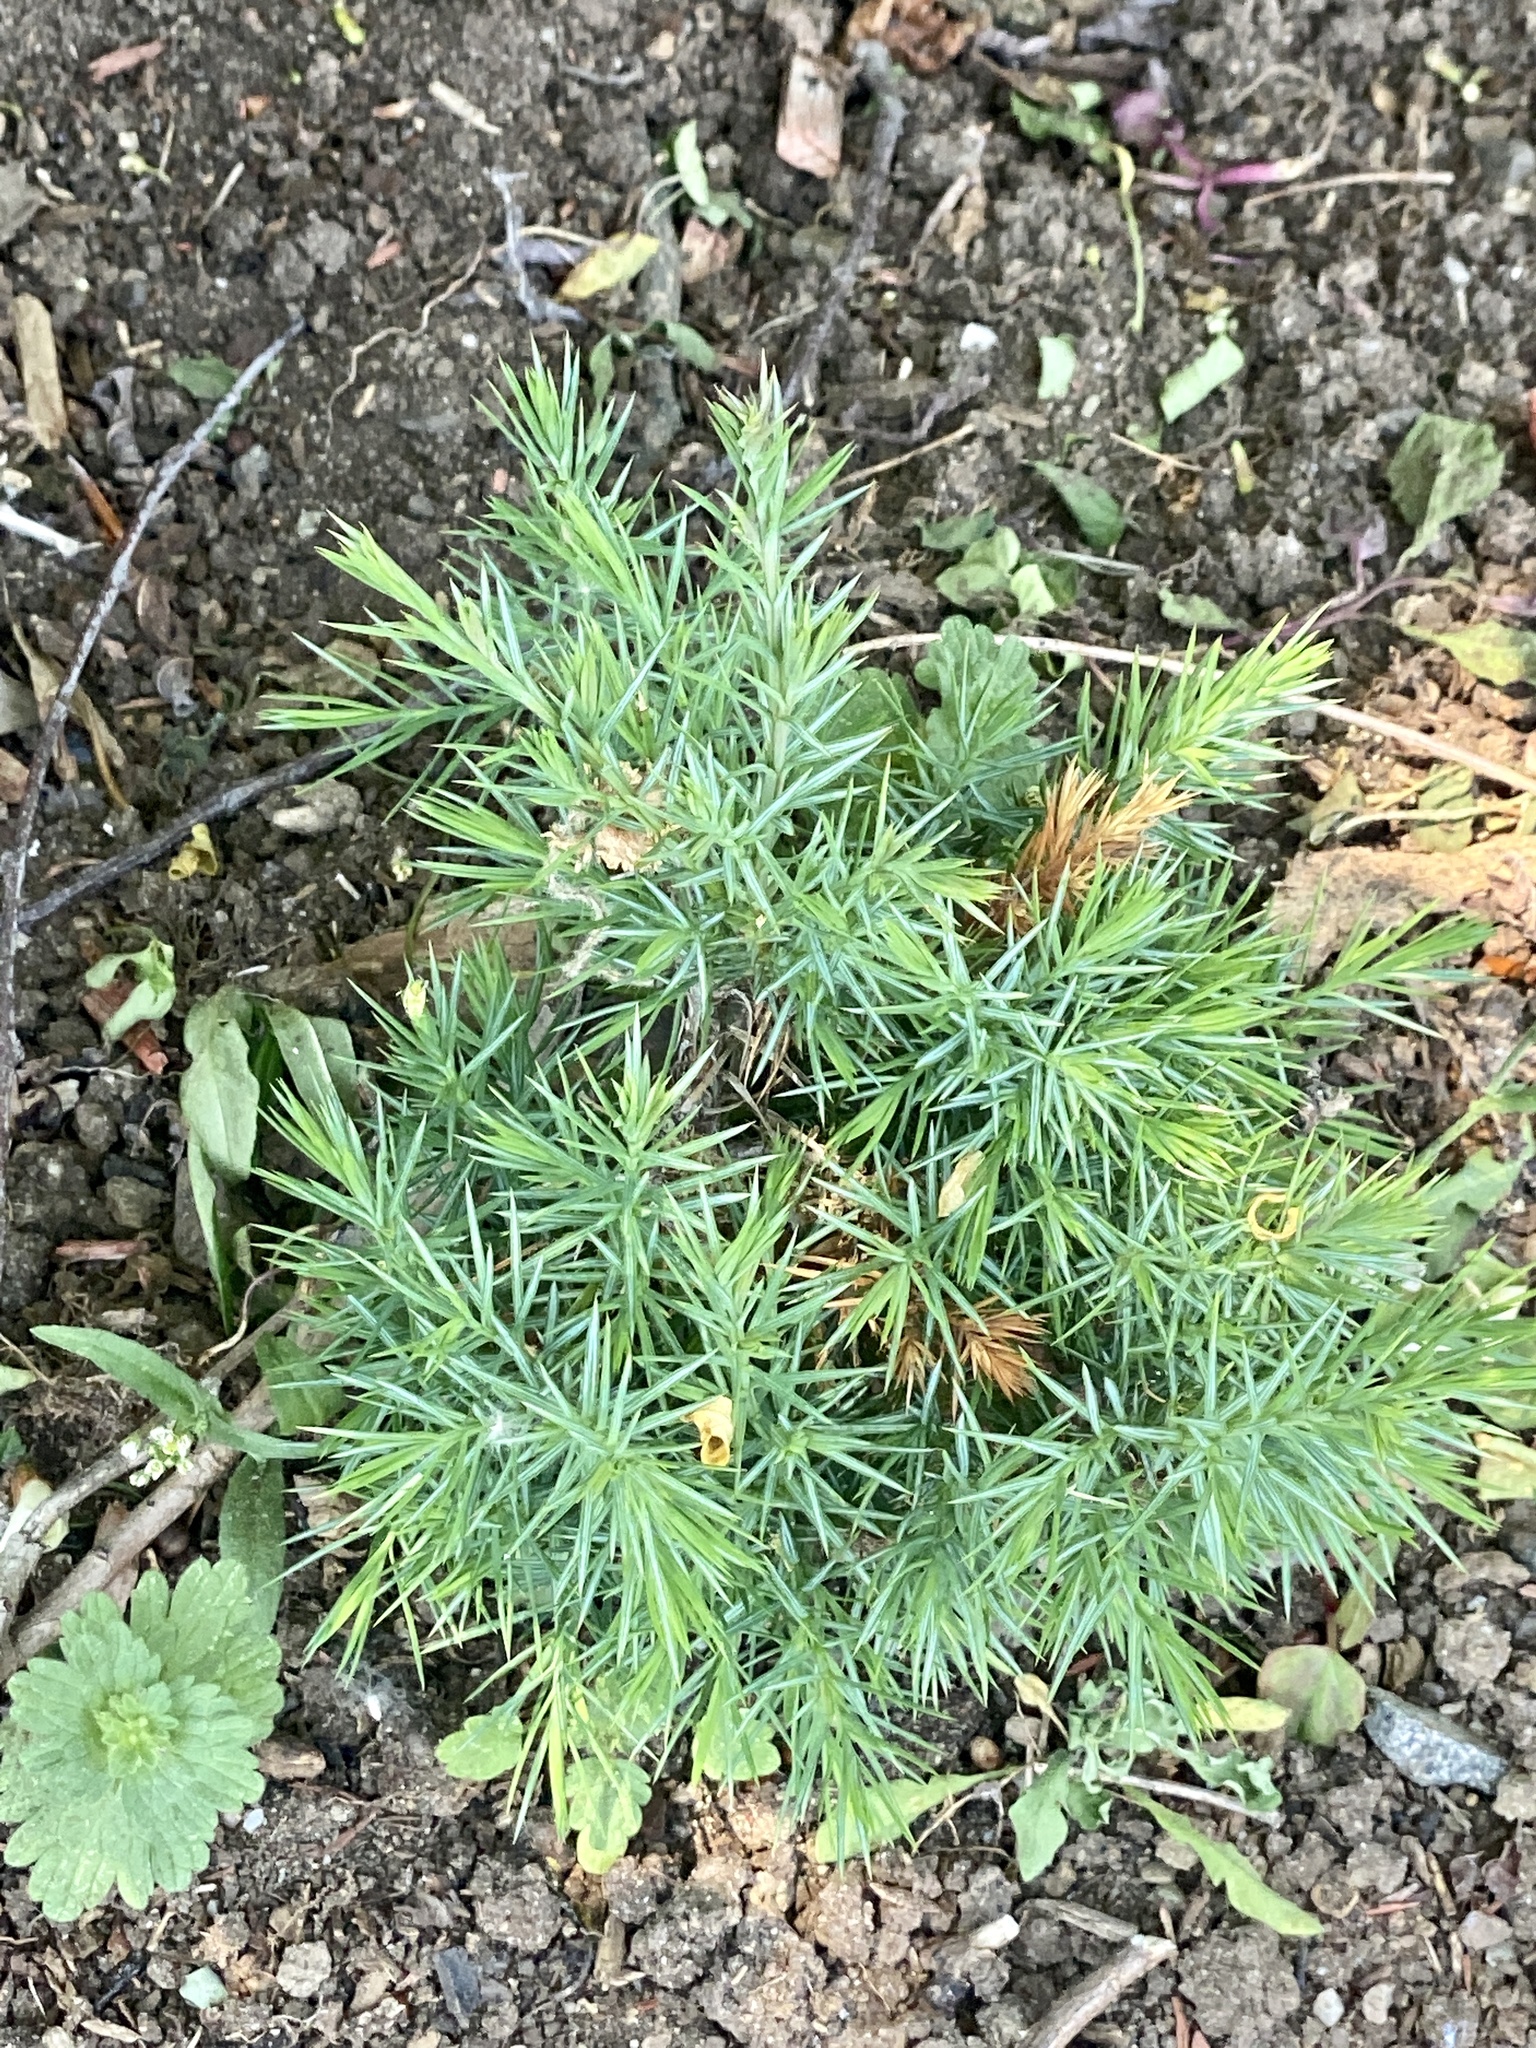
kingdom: Plantae
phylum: Tracheophyta
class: Pinopsida
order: Pinales
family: Cupressaceae
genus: Juniperus
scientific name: Juniperus virginiana
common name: Red juniper
